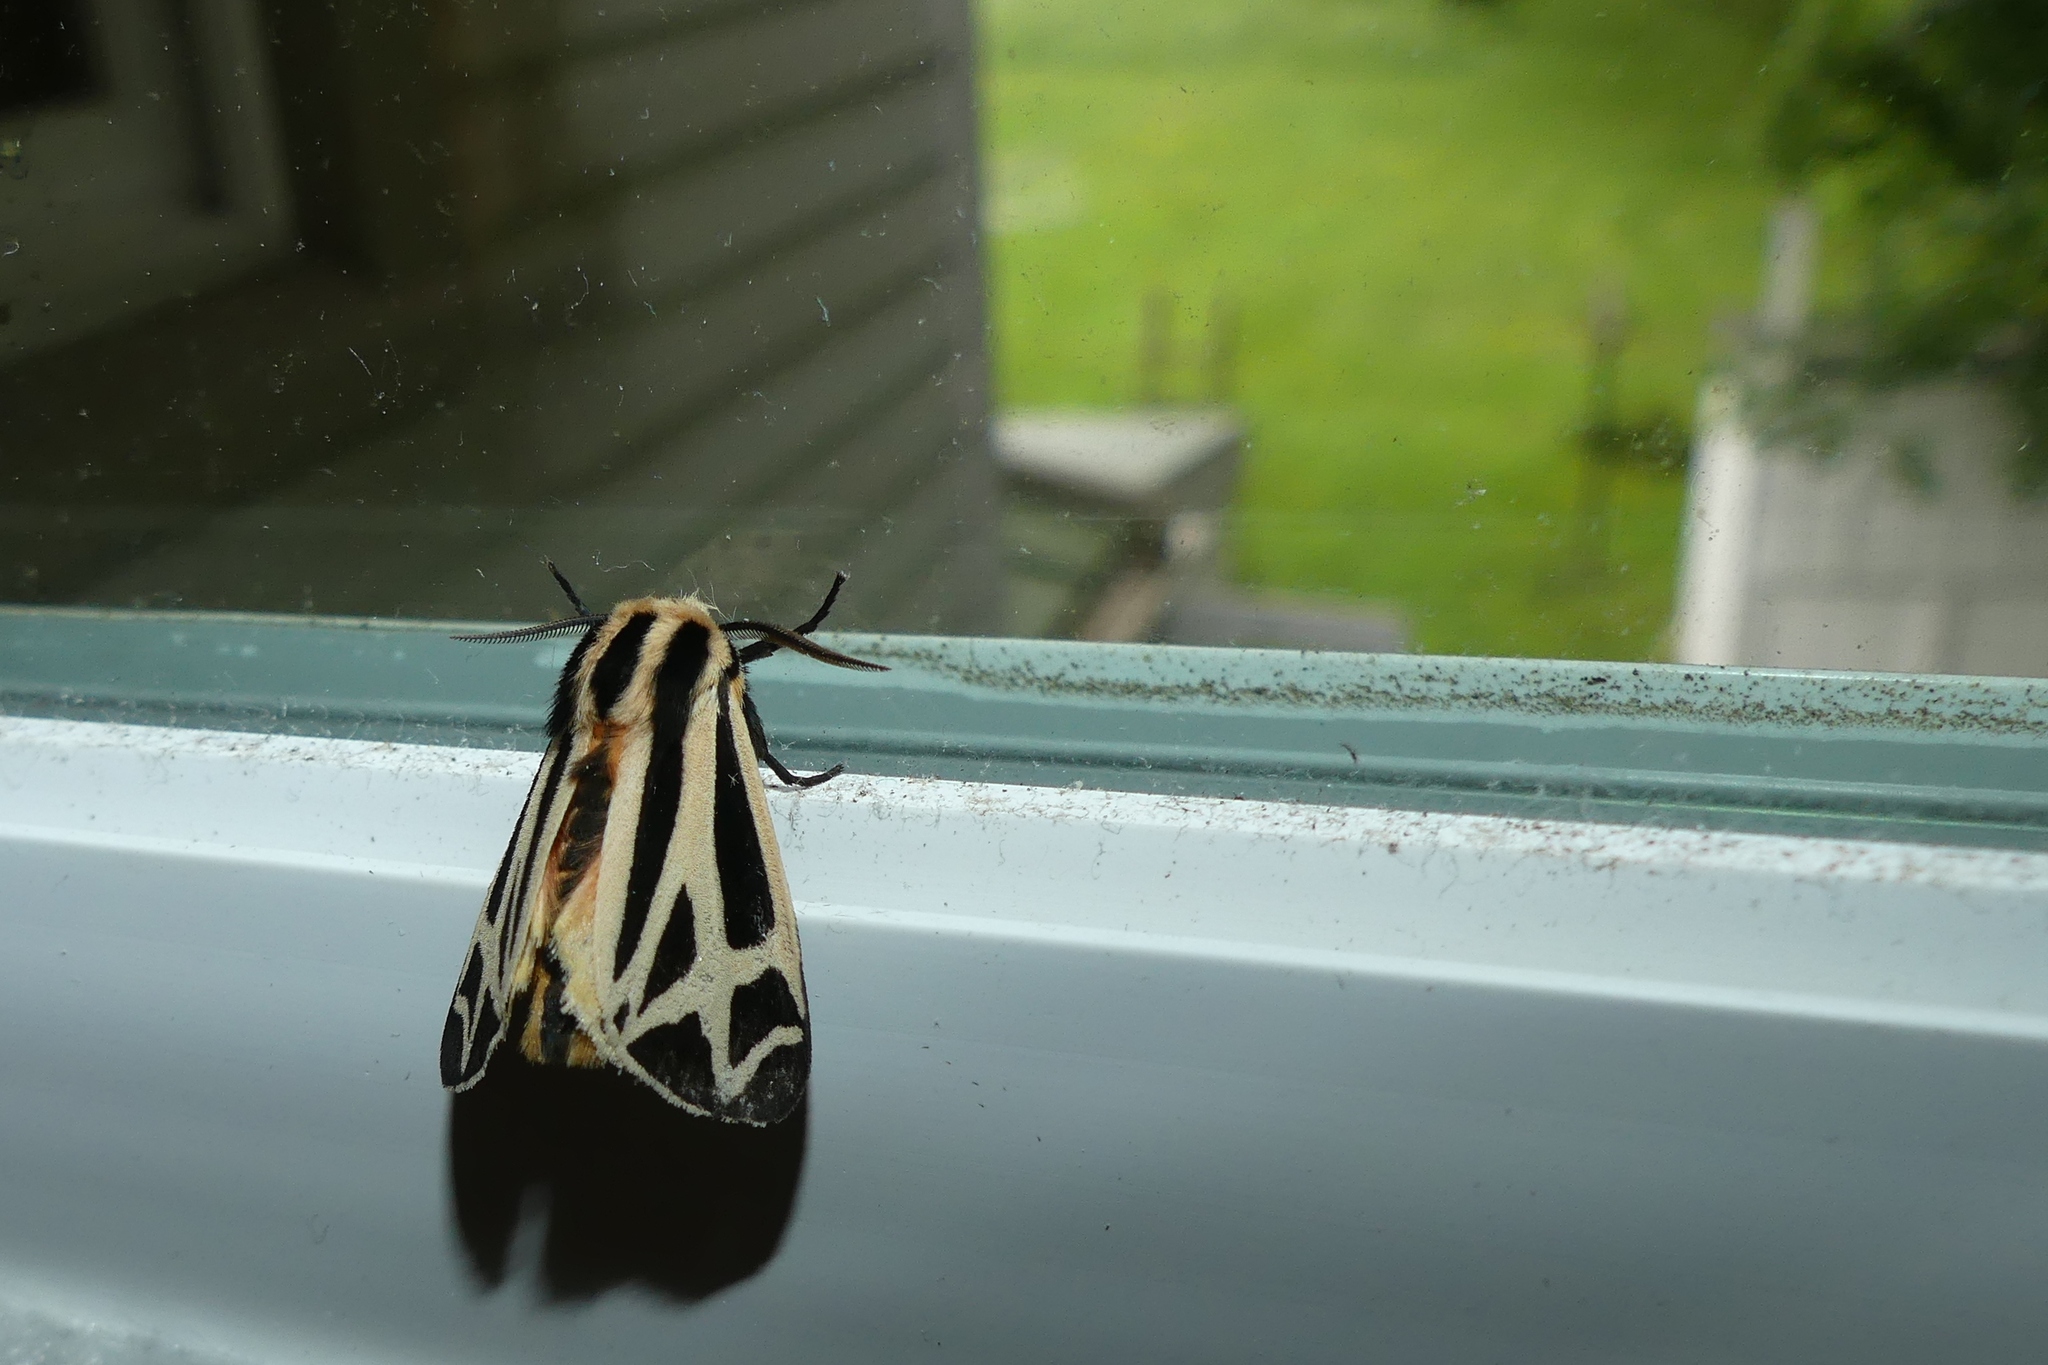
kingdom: Animalia
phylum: Arthropoda
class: Insecta
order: Lepidoptera
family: Erebidae
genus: Apantesis
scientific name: Apantesis phalerata
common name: Harnessed tiger moth
